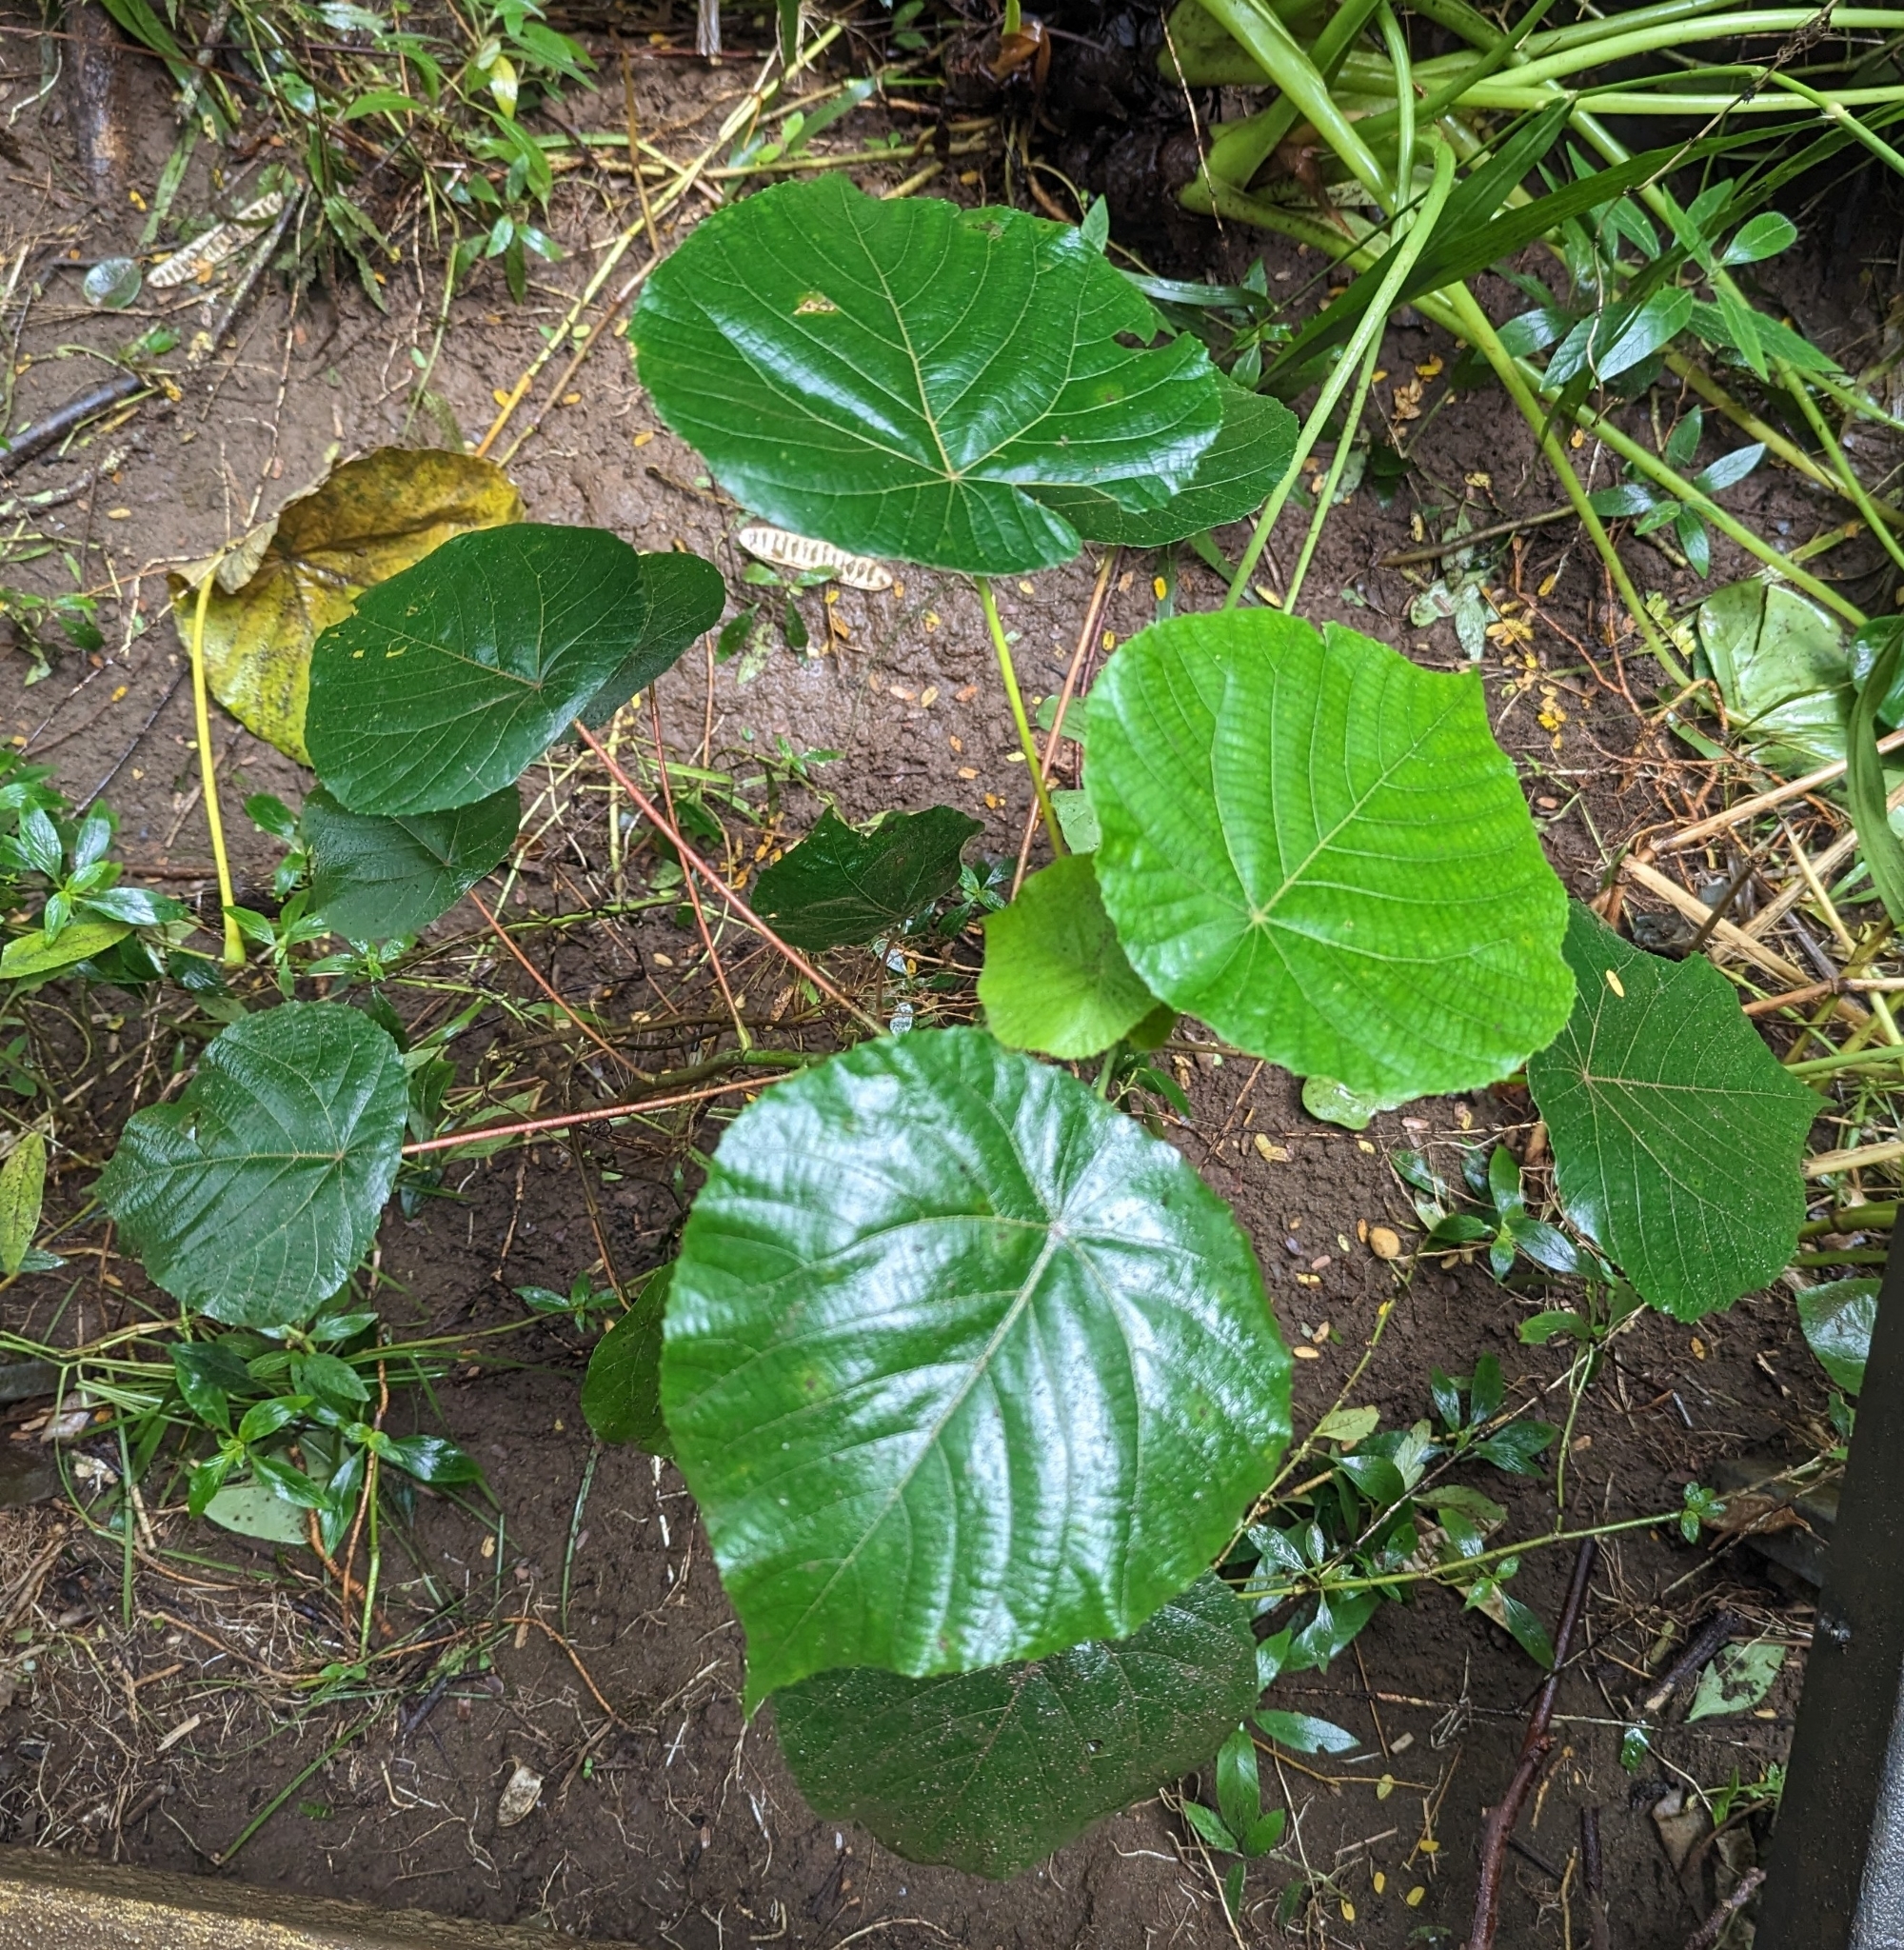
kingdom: Plantae
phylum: Tracheophyta
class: Magnoliopsida
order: Malpighiales
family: Euphorbiaceae
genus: Macaranga
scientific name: Macaranga tanarius
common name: Parasol leaf tree
